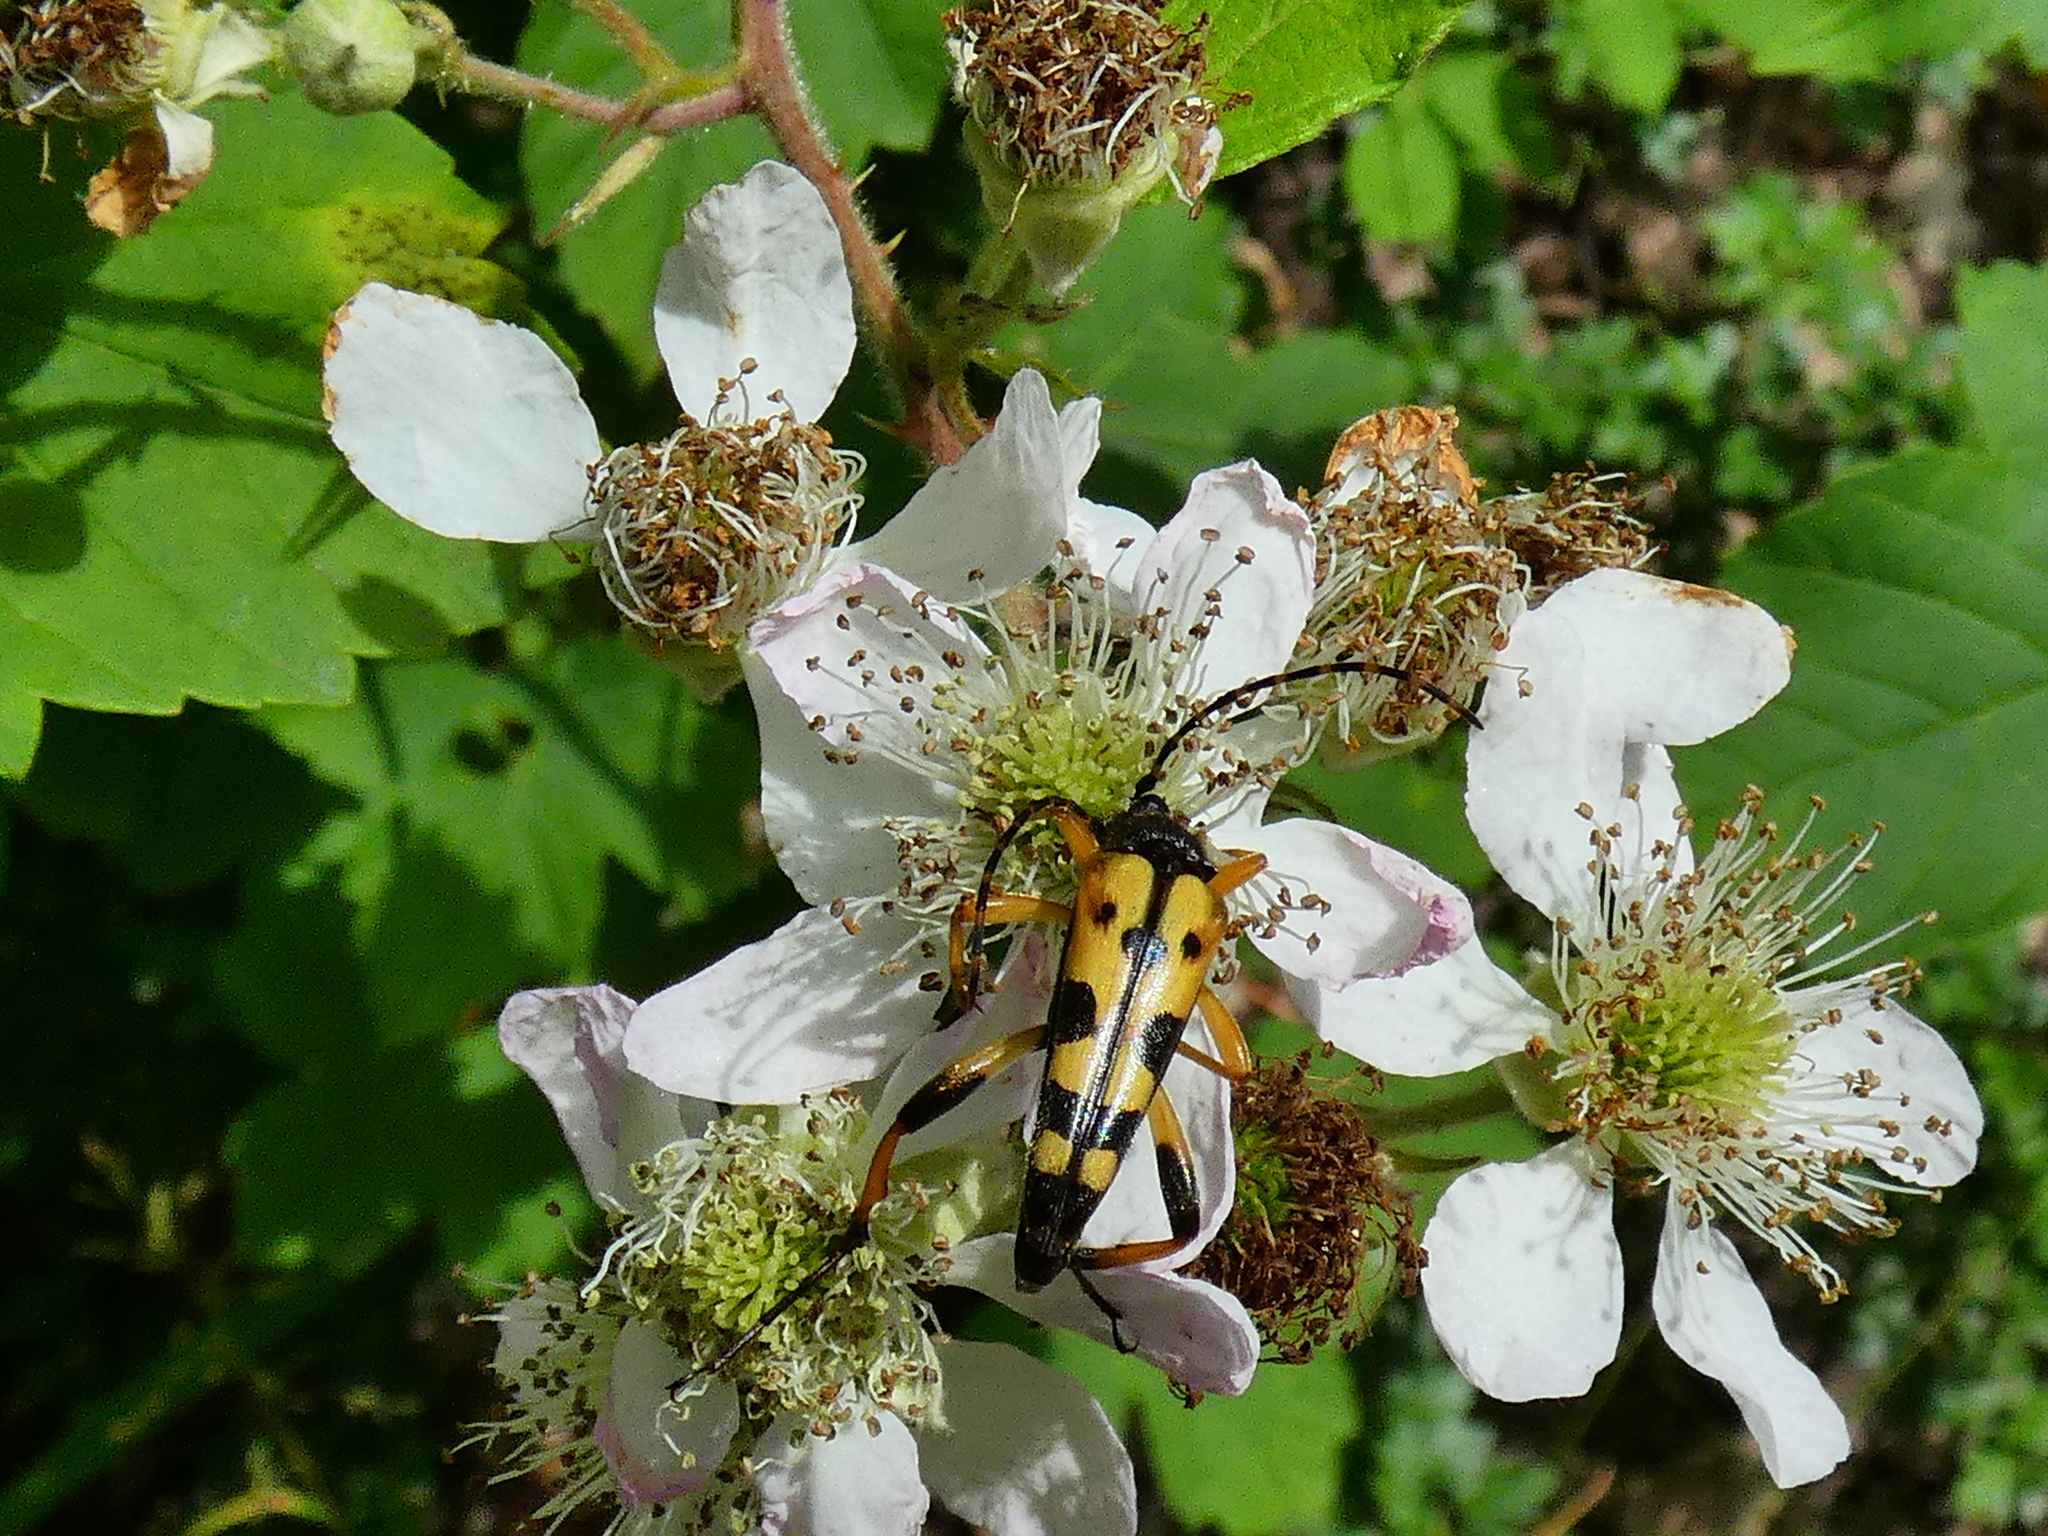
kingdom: Animalia
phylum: Arthropoda
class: Insecta
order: Coleoptera
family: Cerambycidae
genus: Rutpela
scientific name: Rutpela maculata
